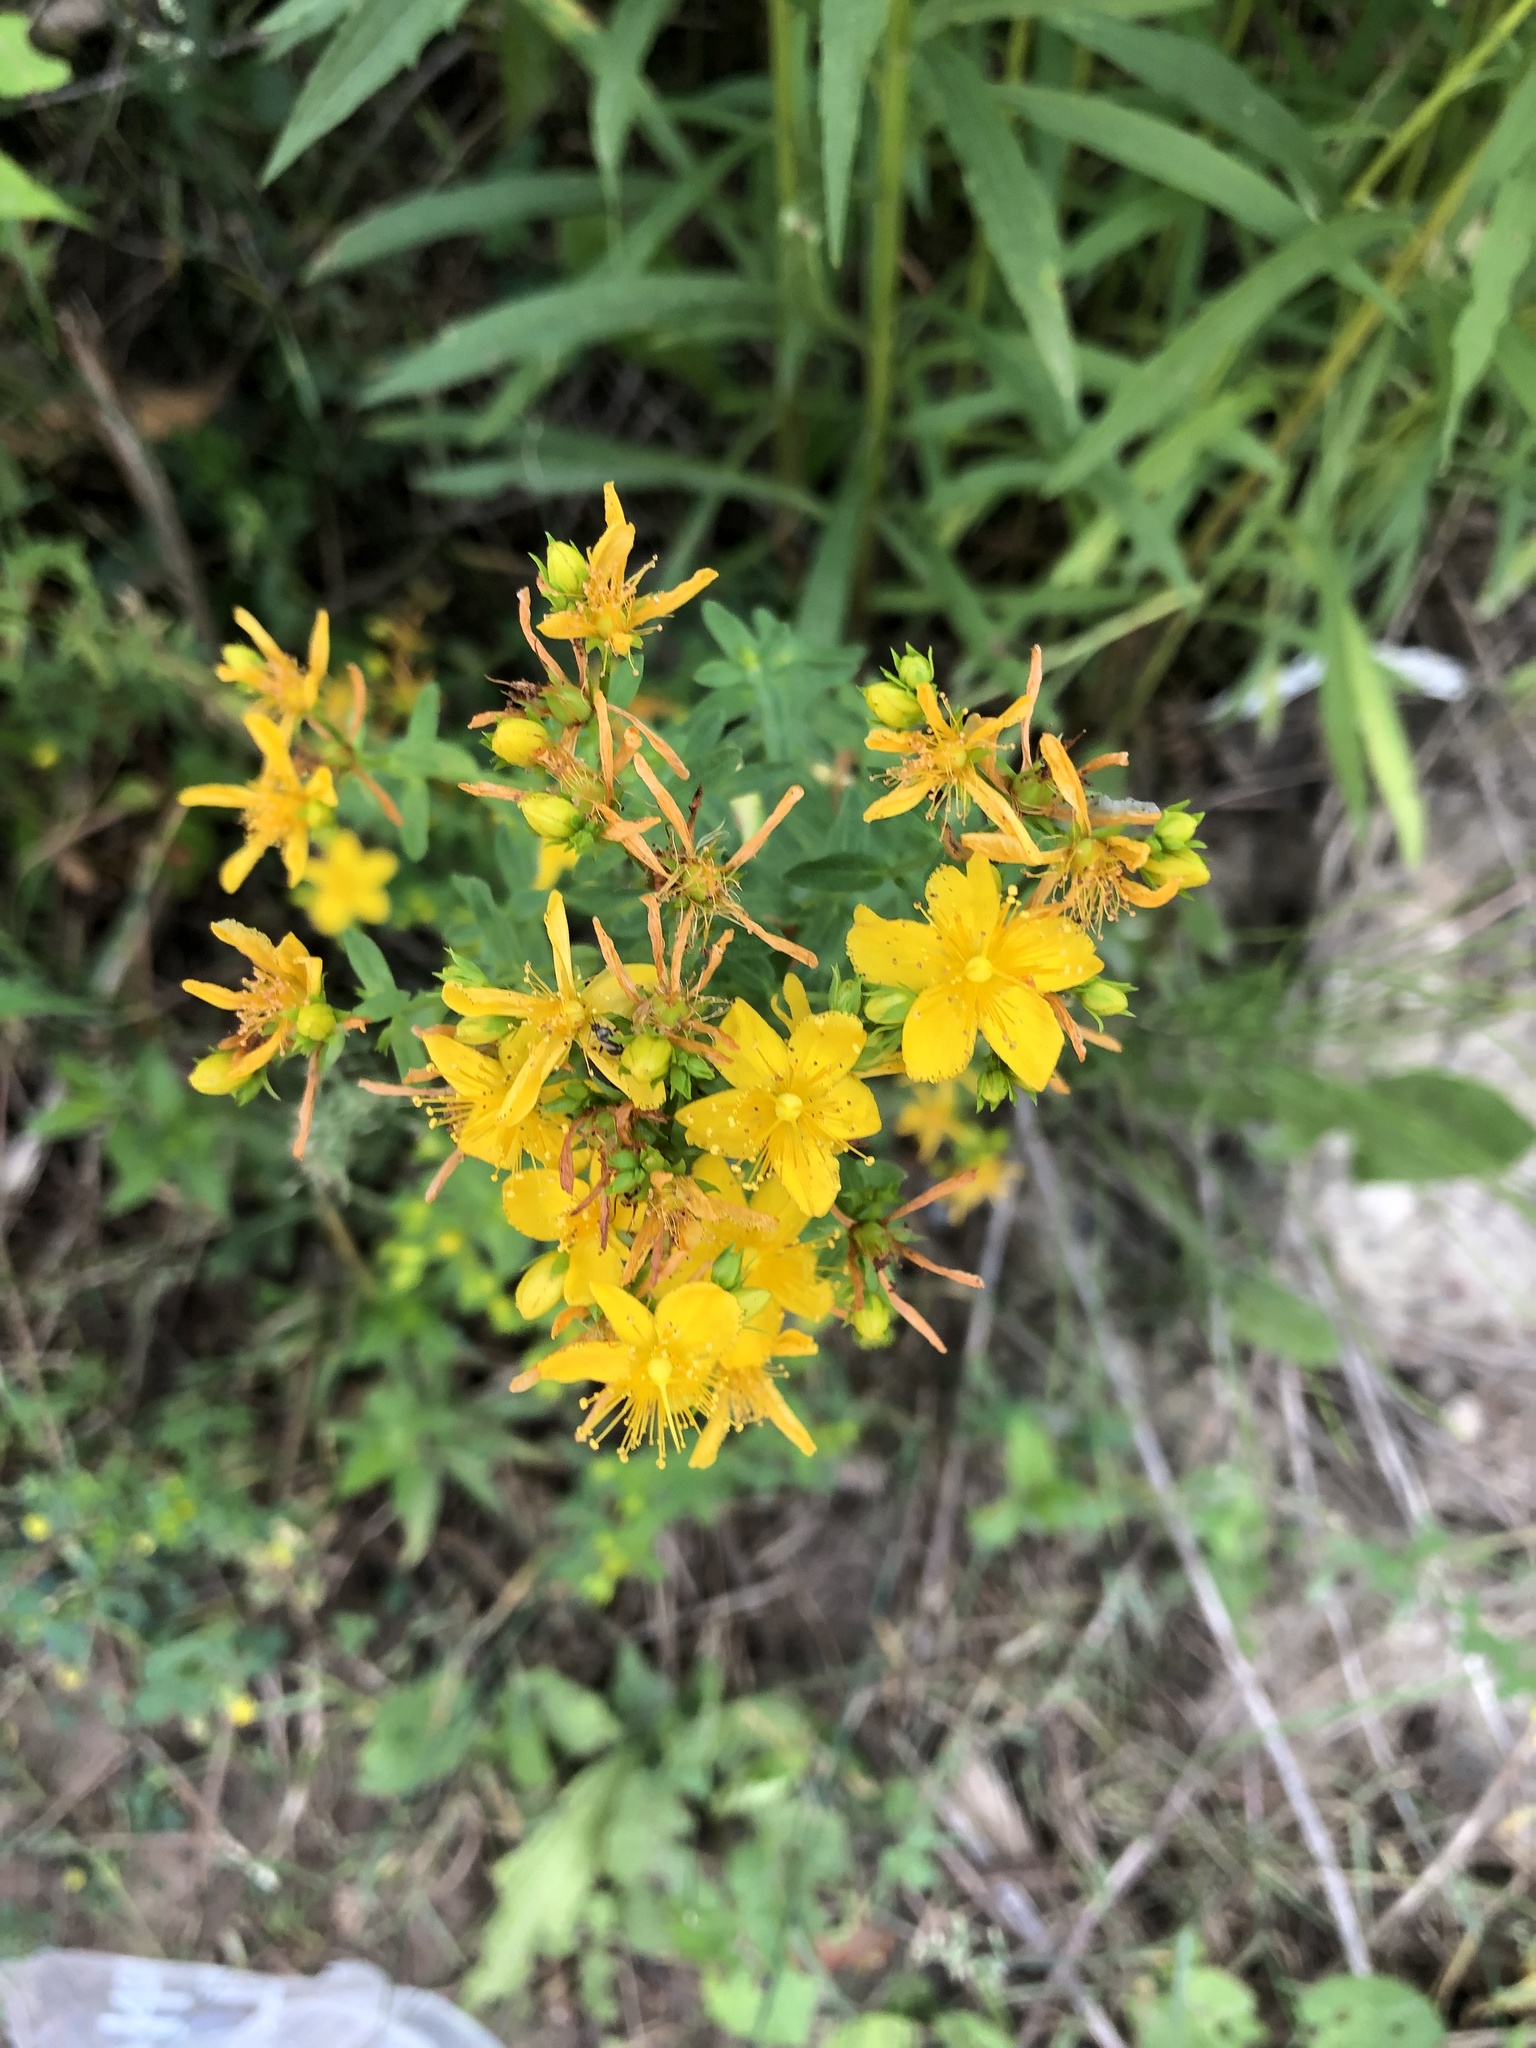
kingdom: Plantae
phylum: Tracheophyta
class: Magnoliopsida
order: Malpighiales
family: Hypericaceae
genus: Hypericum
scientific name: Hypericum perforatum
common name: Common st. johnswort
